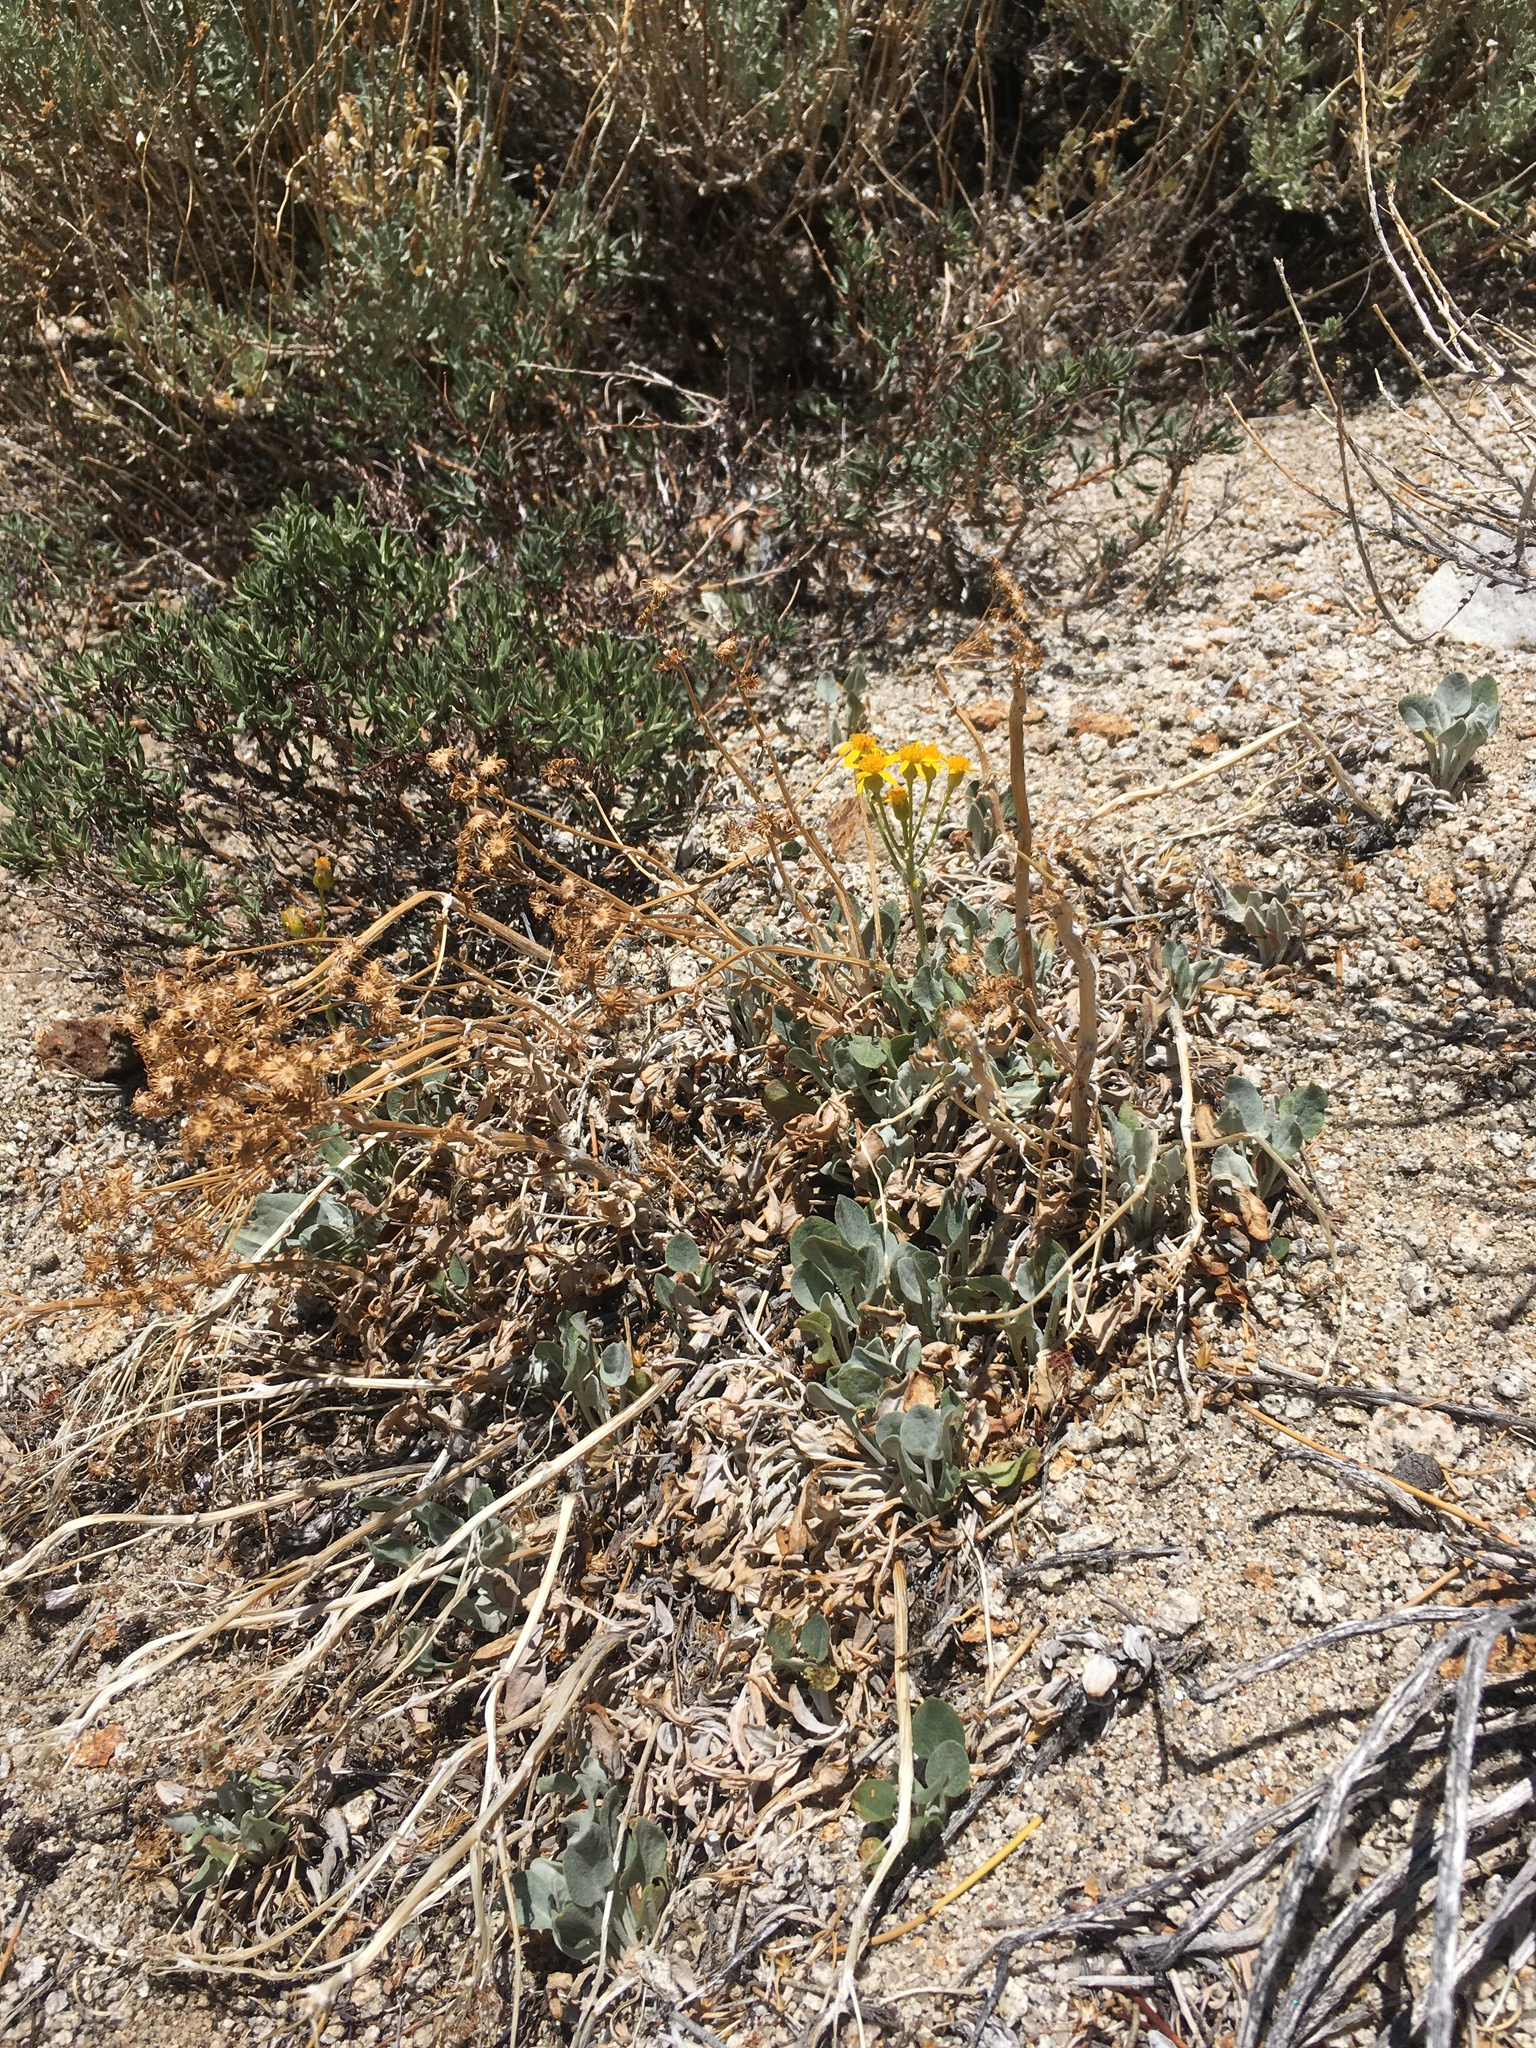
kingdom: Plantae
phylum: Tracheophyta
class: Magnoliopsida
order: Asterales
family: Asteraceae
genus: Packera
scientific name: Packera cana
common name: Woolly groundsel
